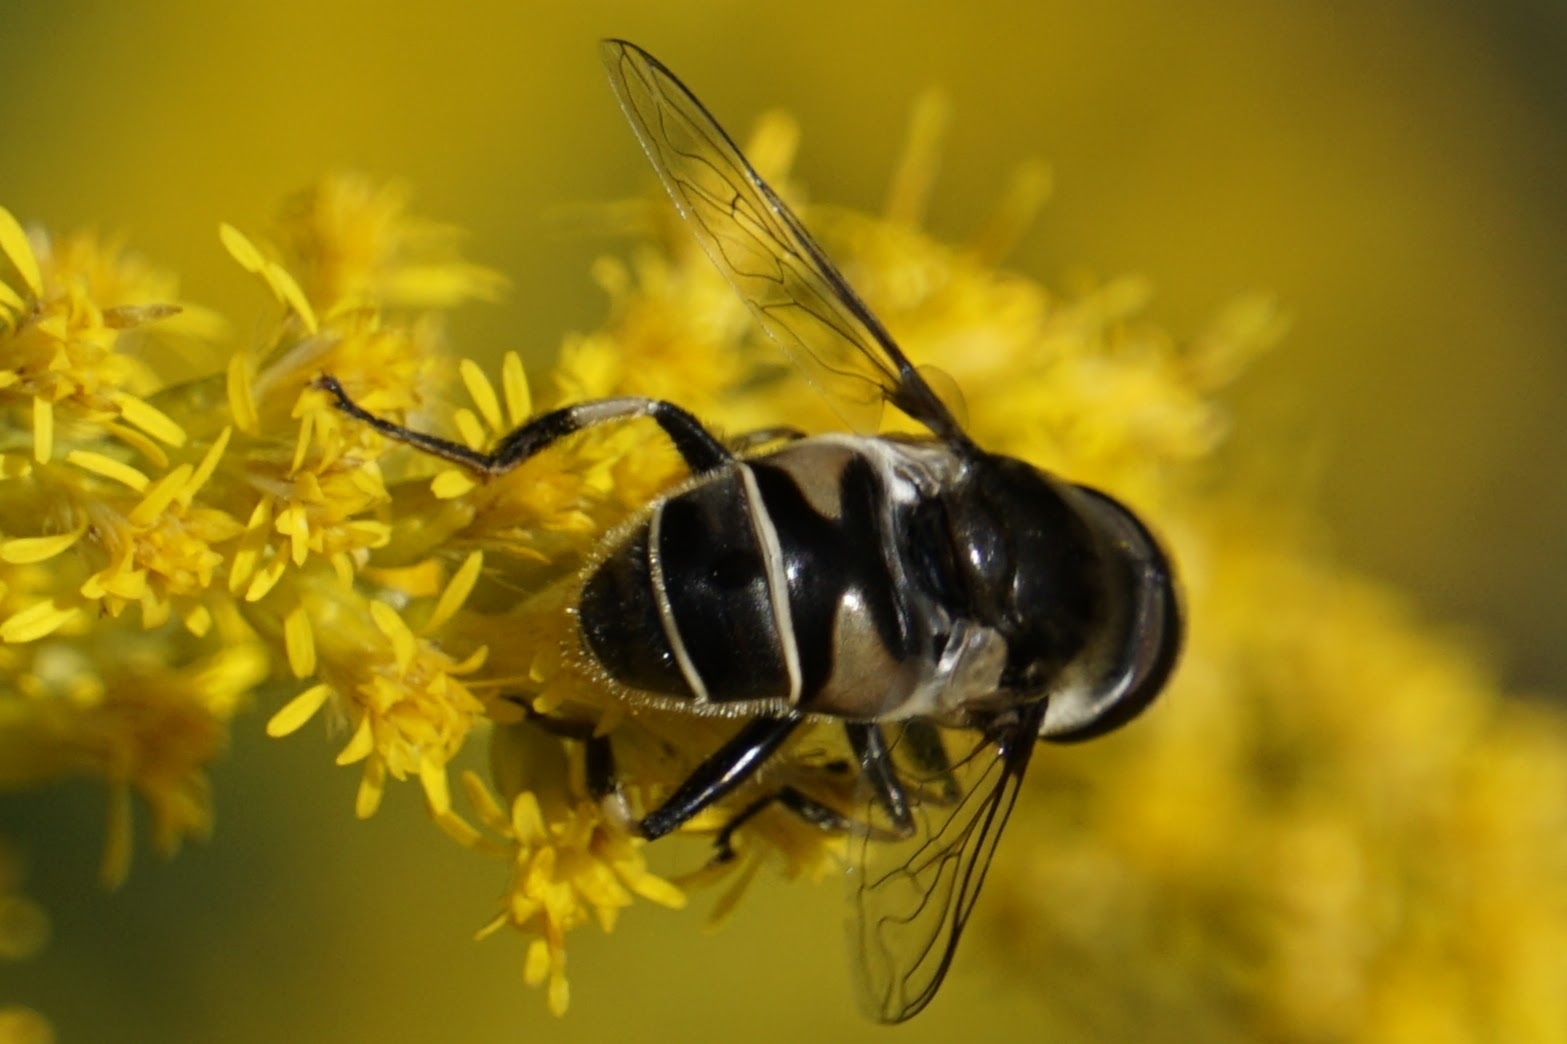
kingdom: Animalia
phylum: Arthropoda
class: Insecta
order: Diptera
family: Syrphidae
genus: Eristalis
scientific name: Eristalis dimidiata
